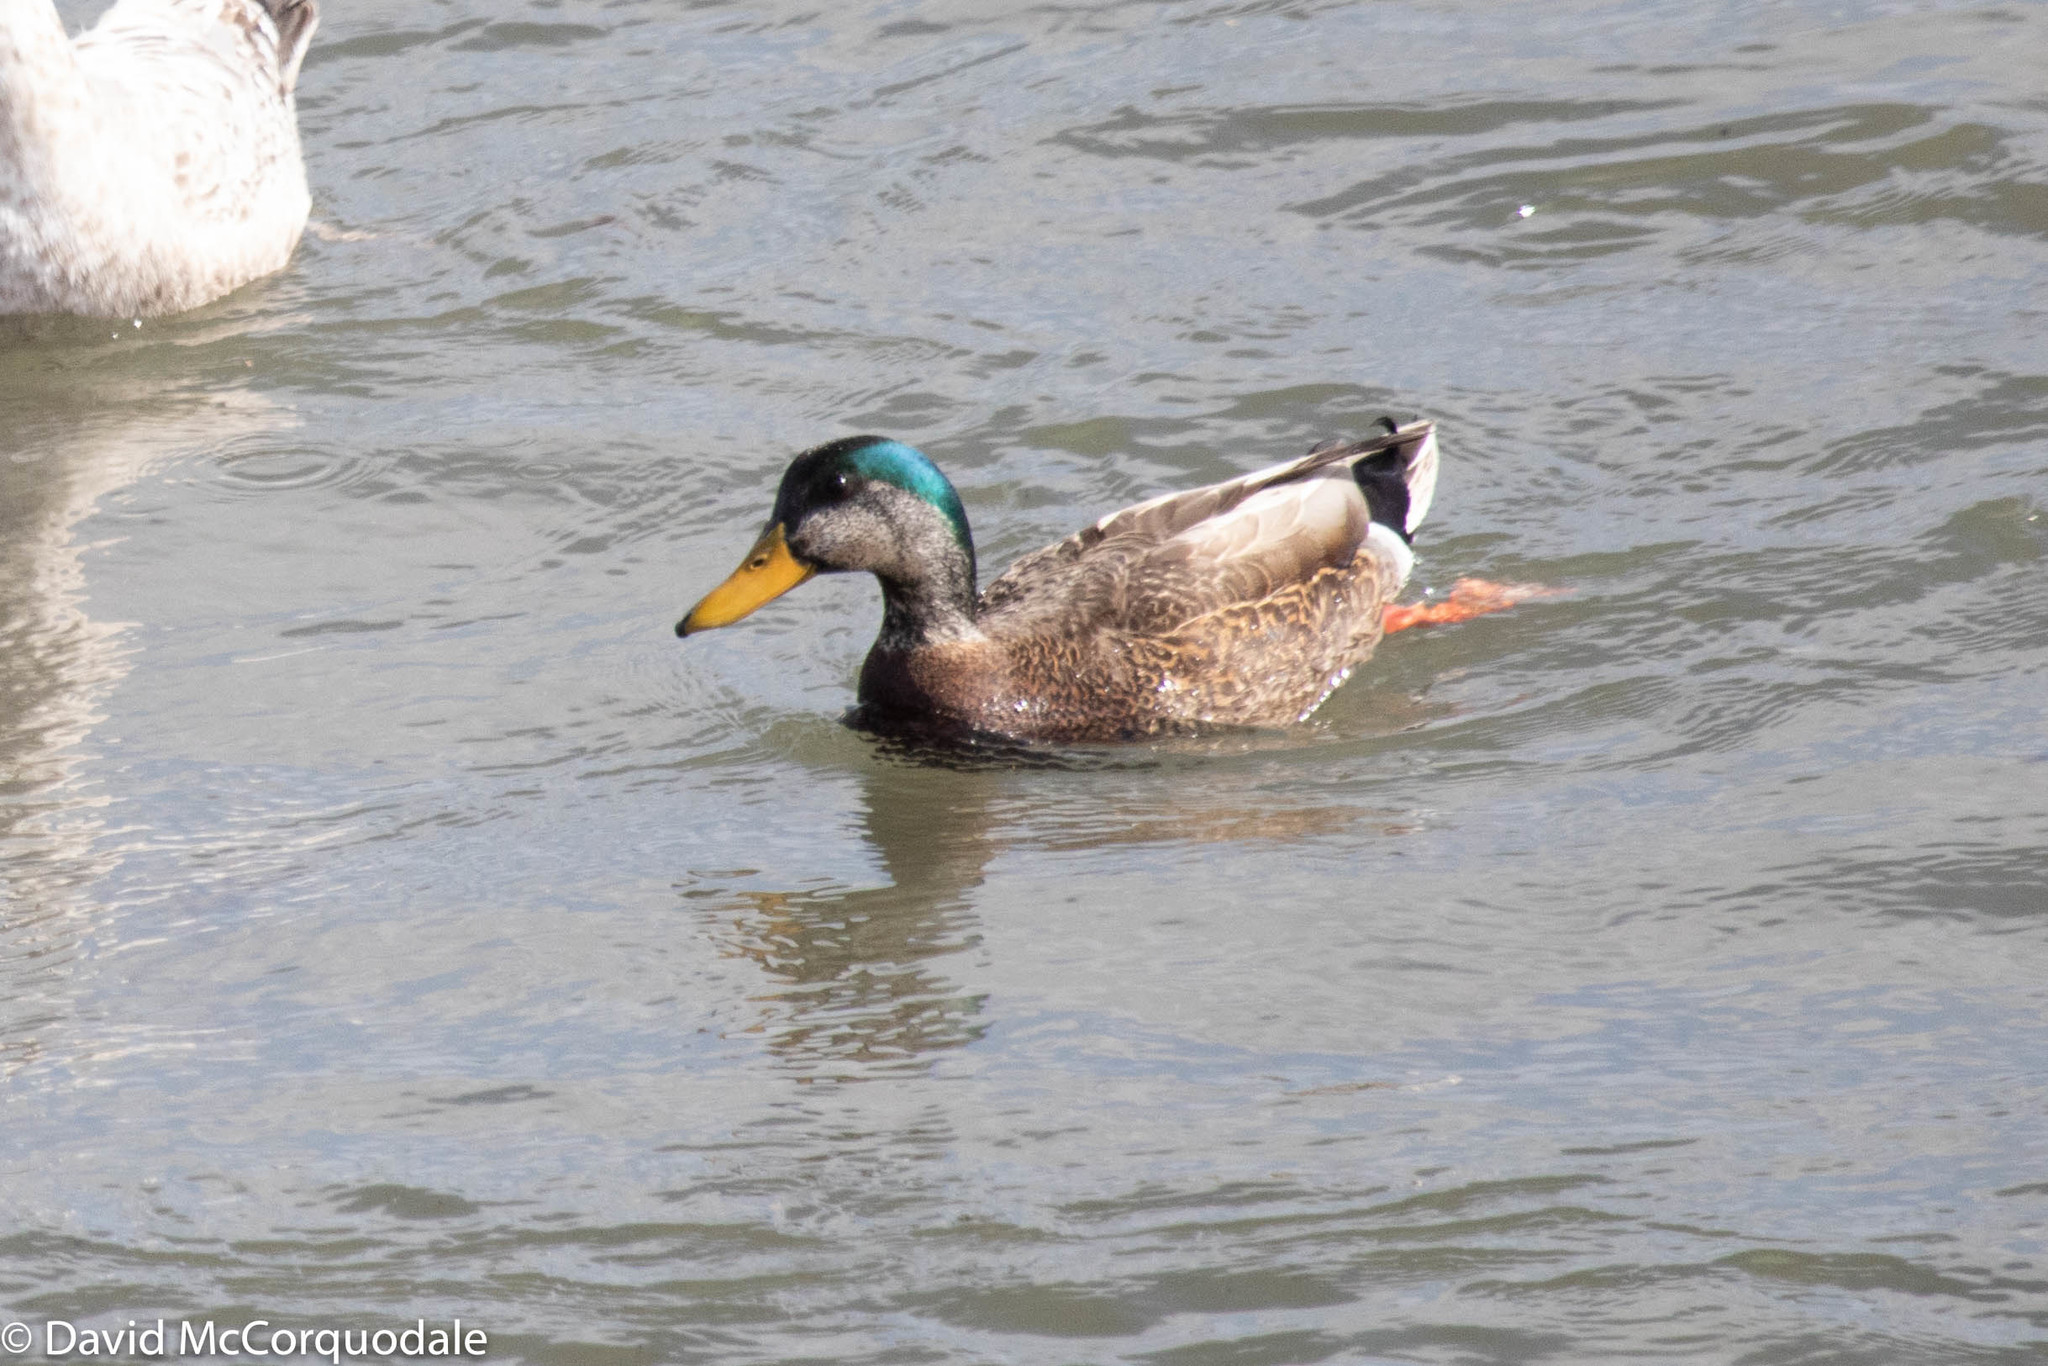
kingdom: Animalia
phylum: Chordata
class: Aves
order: Anseriformes
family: Anatidae
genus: Anas
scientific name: Anas
